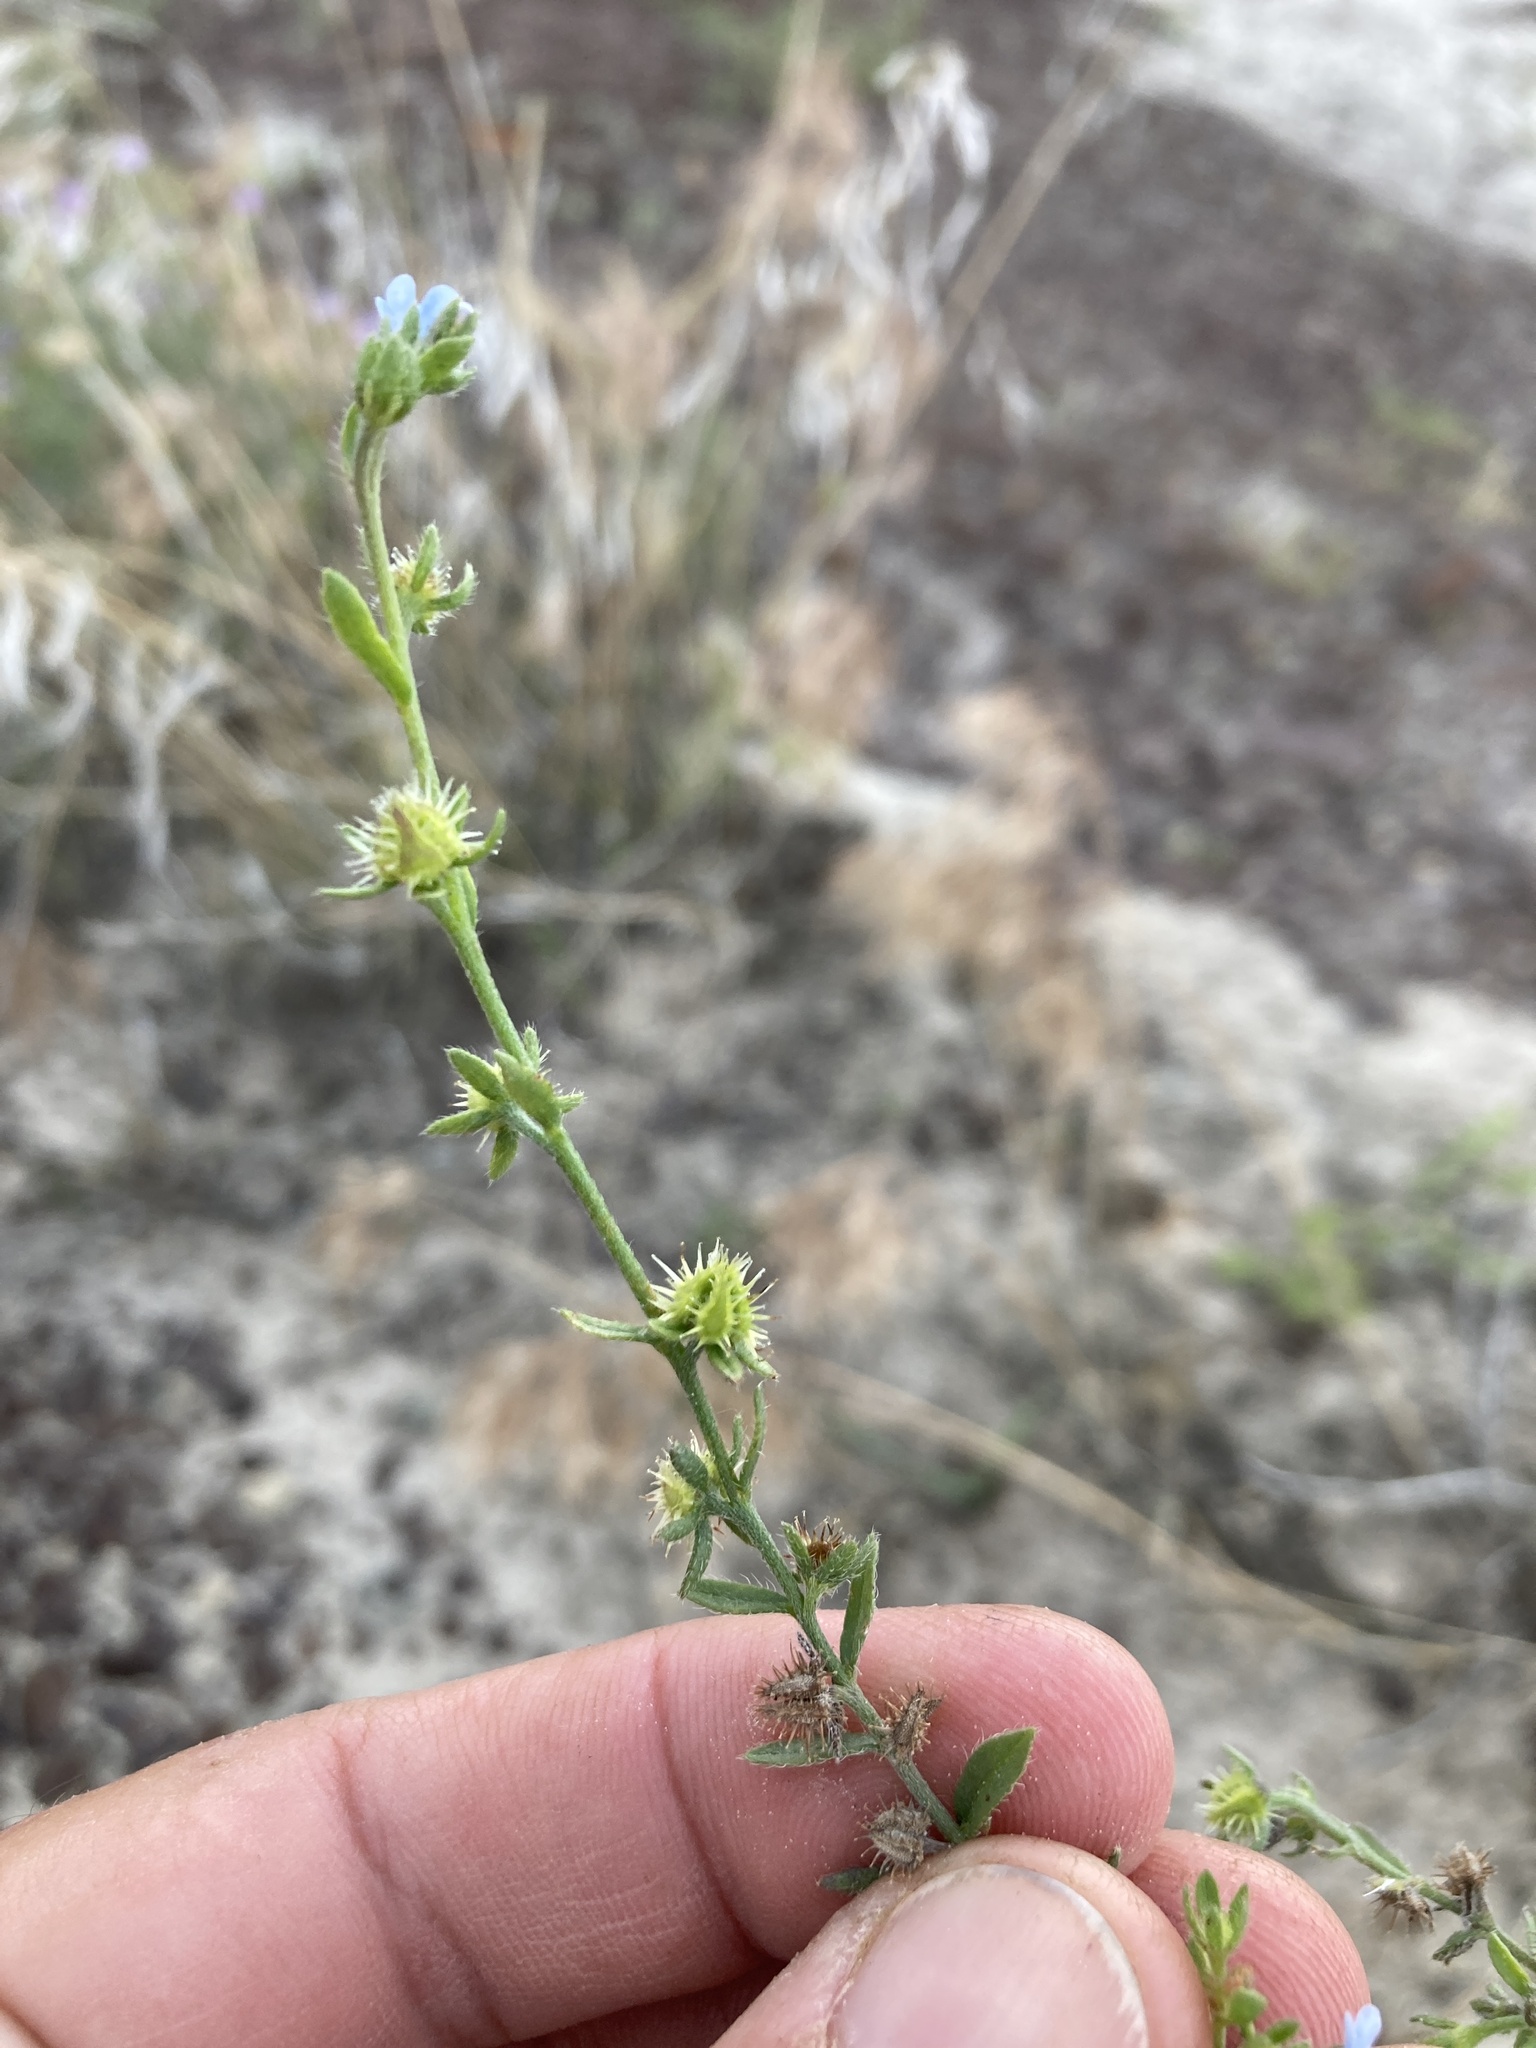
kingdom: Plantae
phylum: Tracheophyta
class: Magnoliopsida
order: Boraginales
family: Boraginaceae
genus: Lappula
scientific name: Lappula occidentalis
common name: Western stickseed
